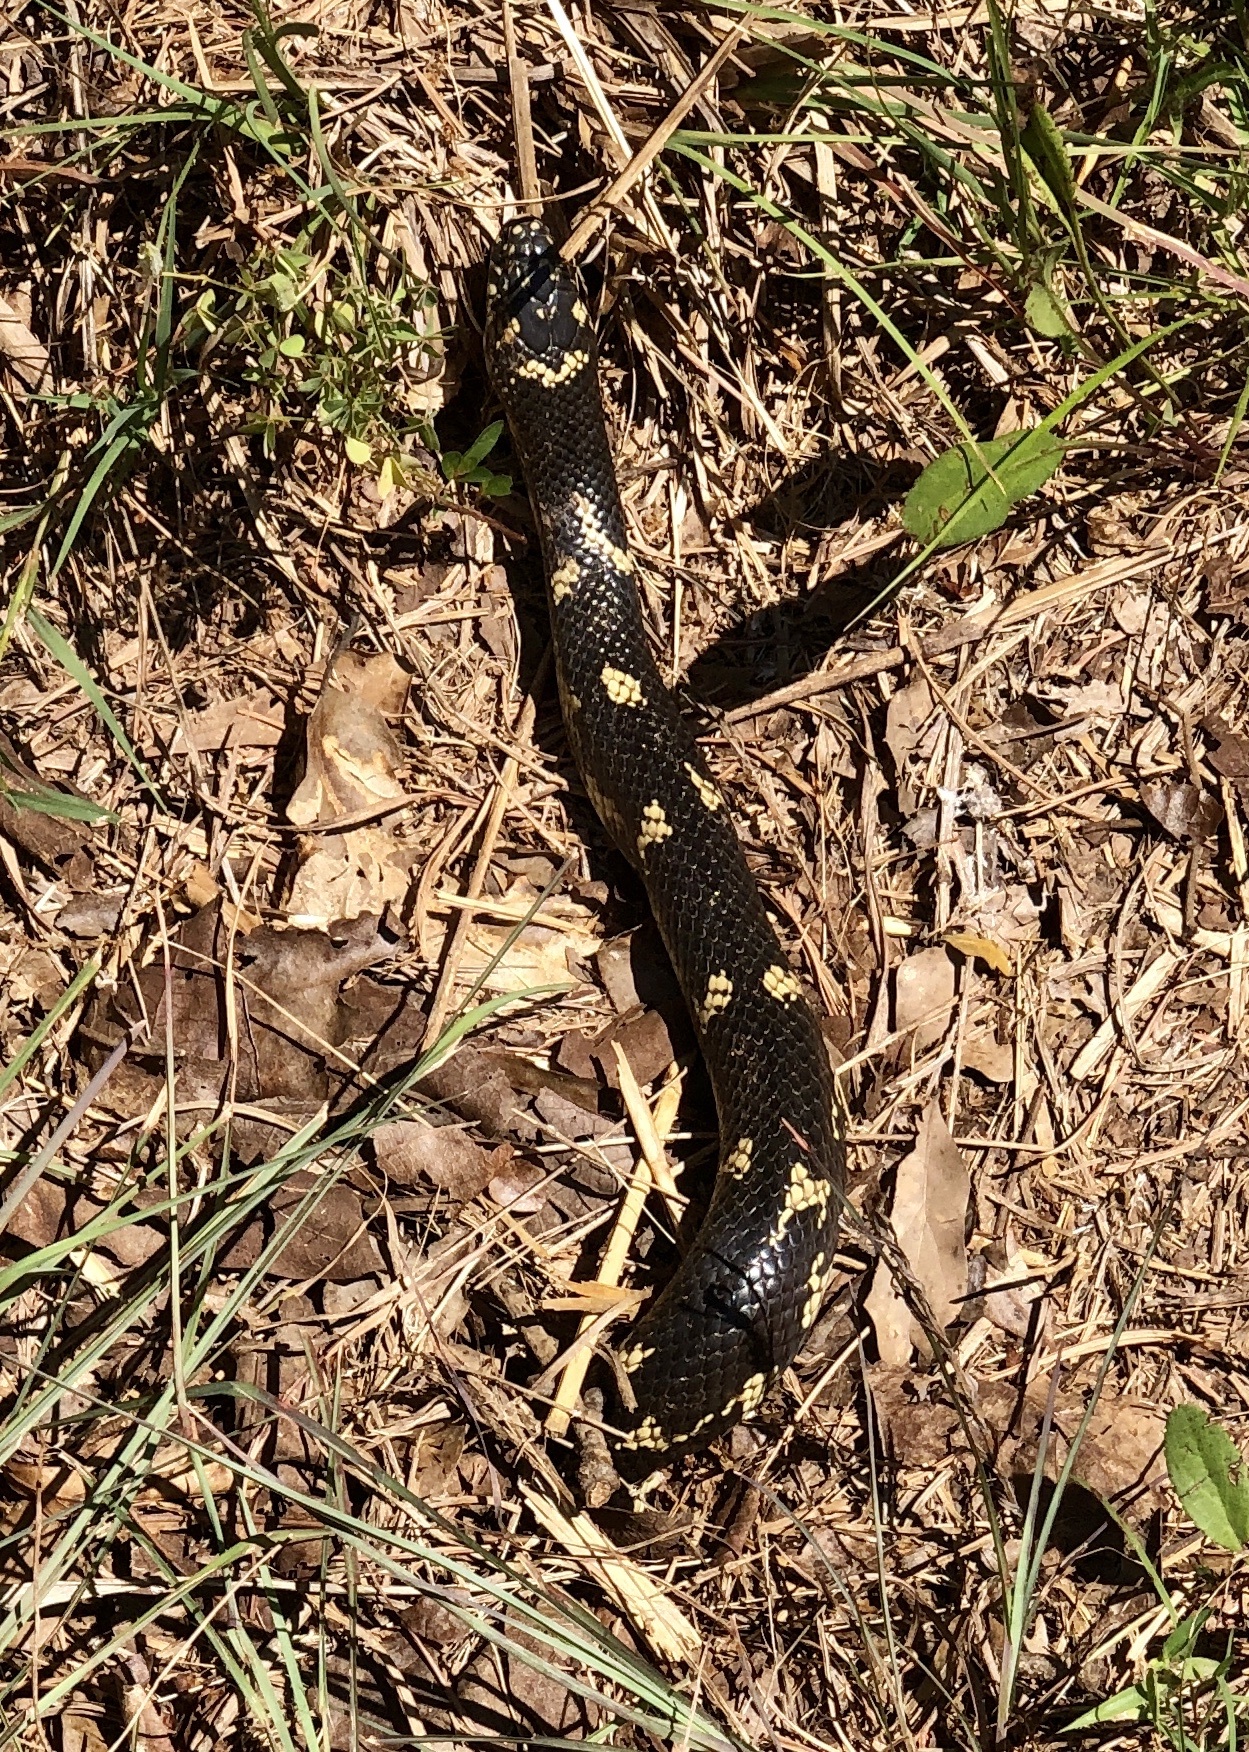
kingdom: Animalia
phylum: Chordata
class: Squamata
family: Colubridae
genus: Lampropeltis
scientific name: Lampropeltis getula
